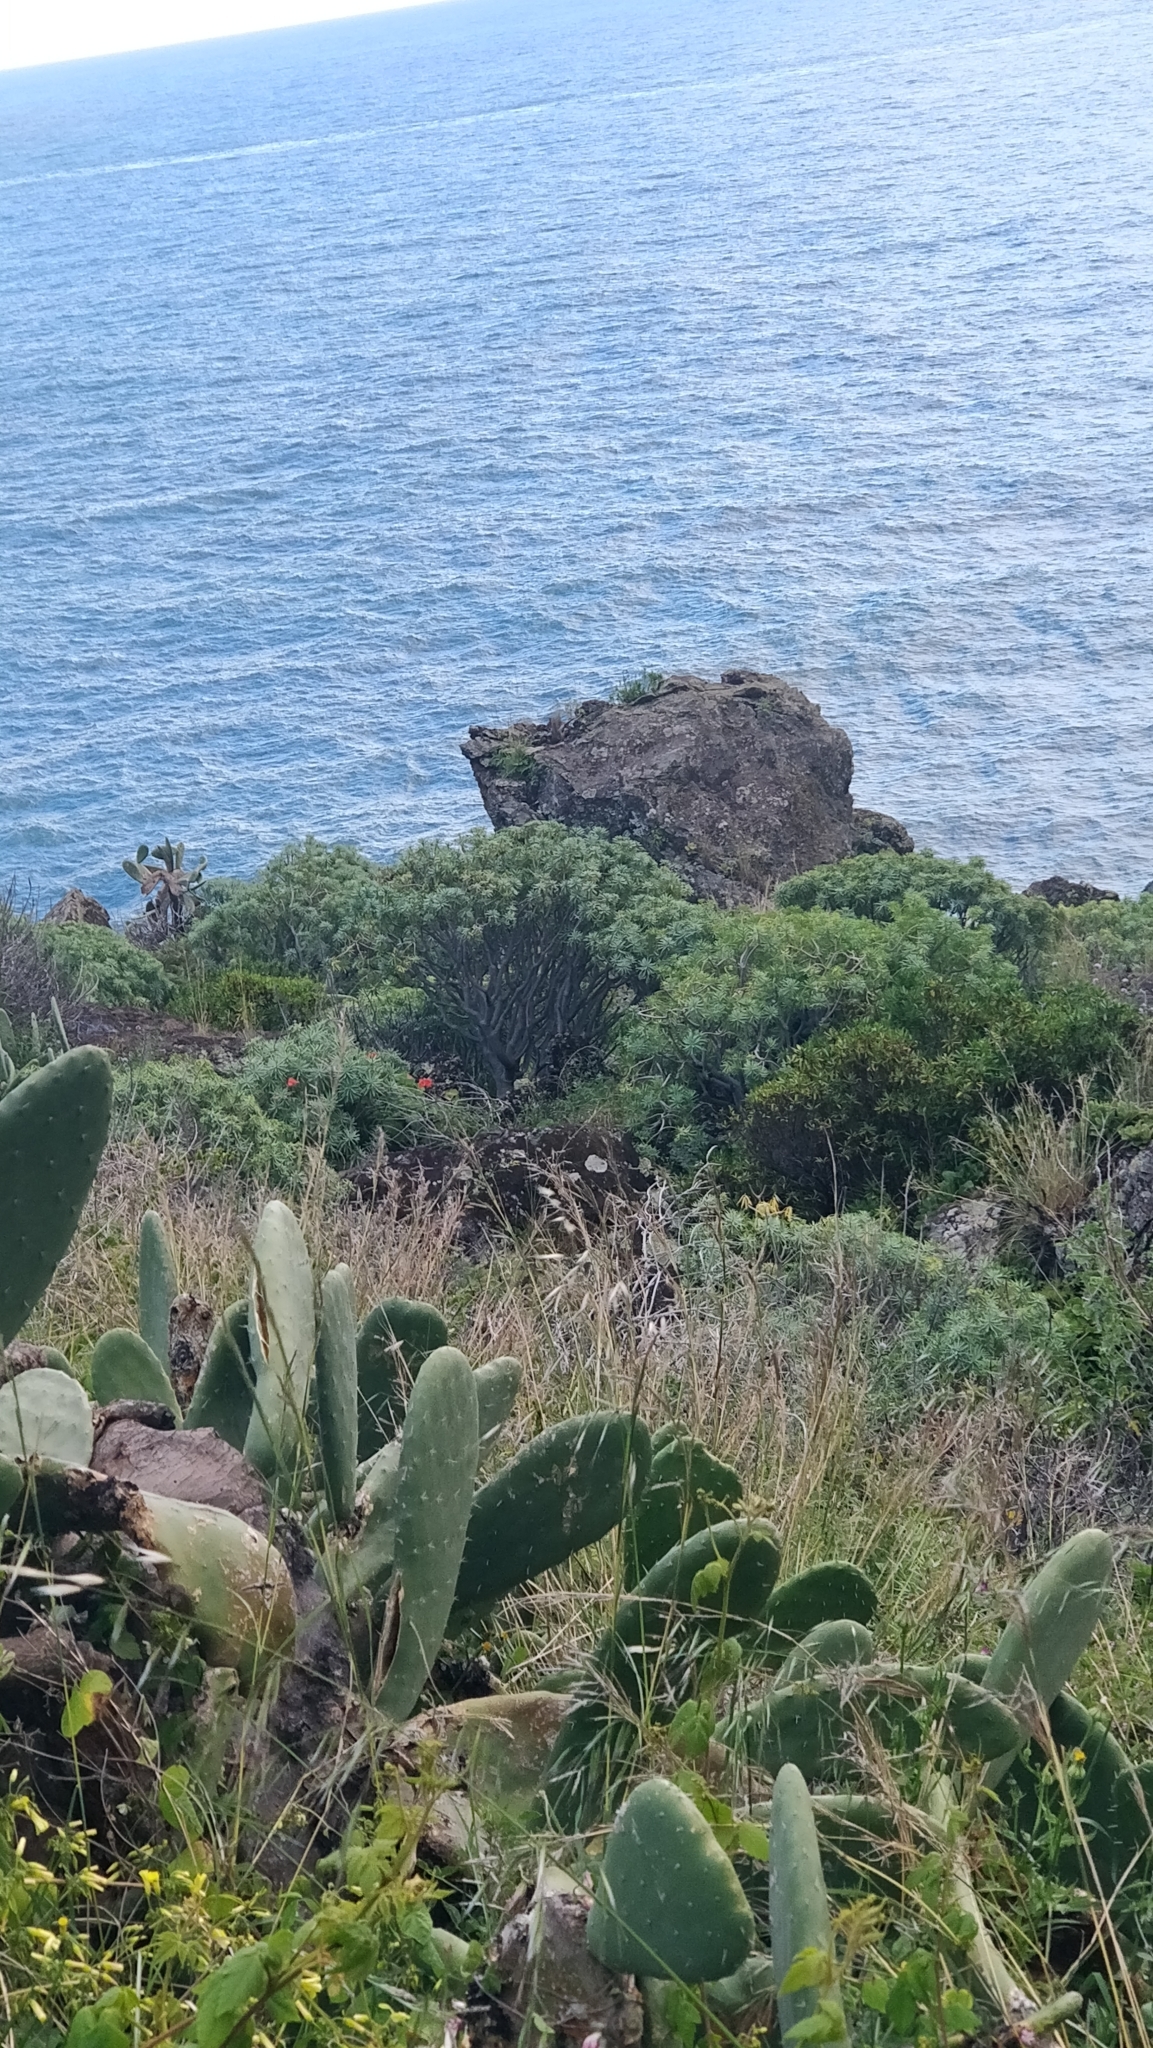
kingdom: Plantae
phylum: Tracheophyta
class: Magnoliopsida
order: Malpighiales
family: Euphorbiaceae
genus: Euphorbia
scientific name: Euphorbia piscatoria
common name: Fish-stunning spurge
